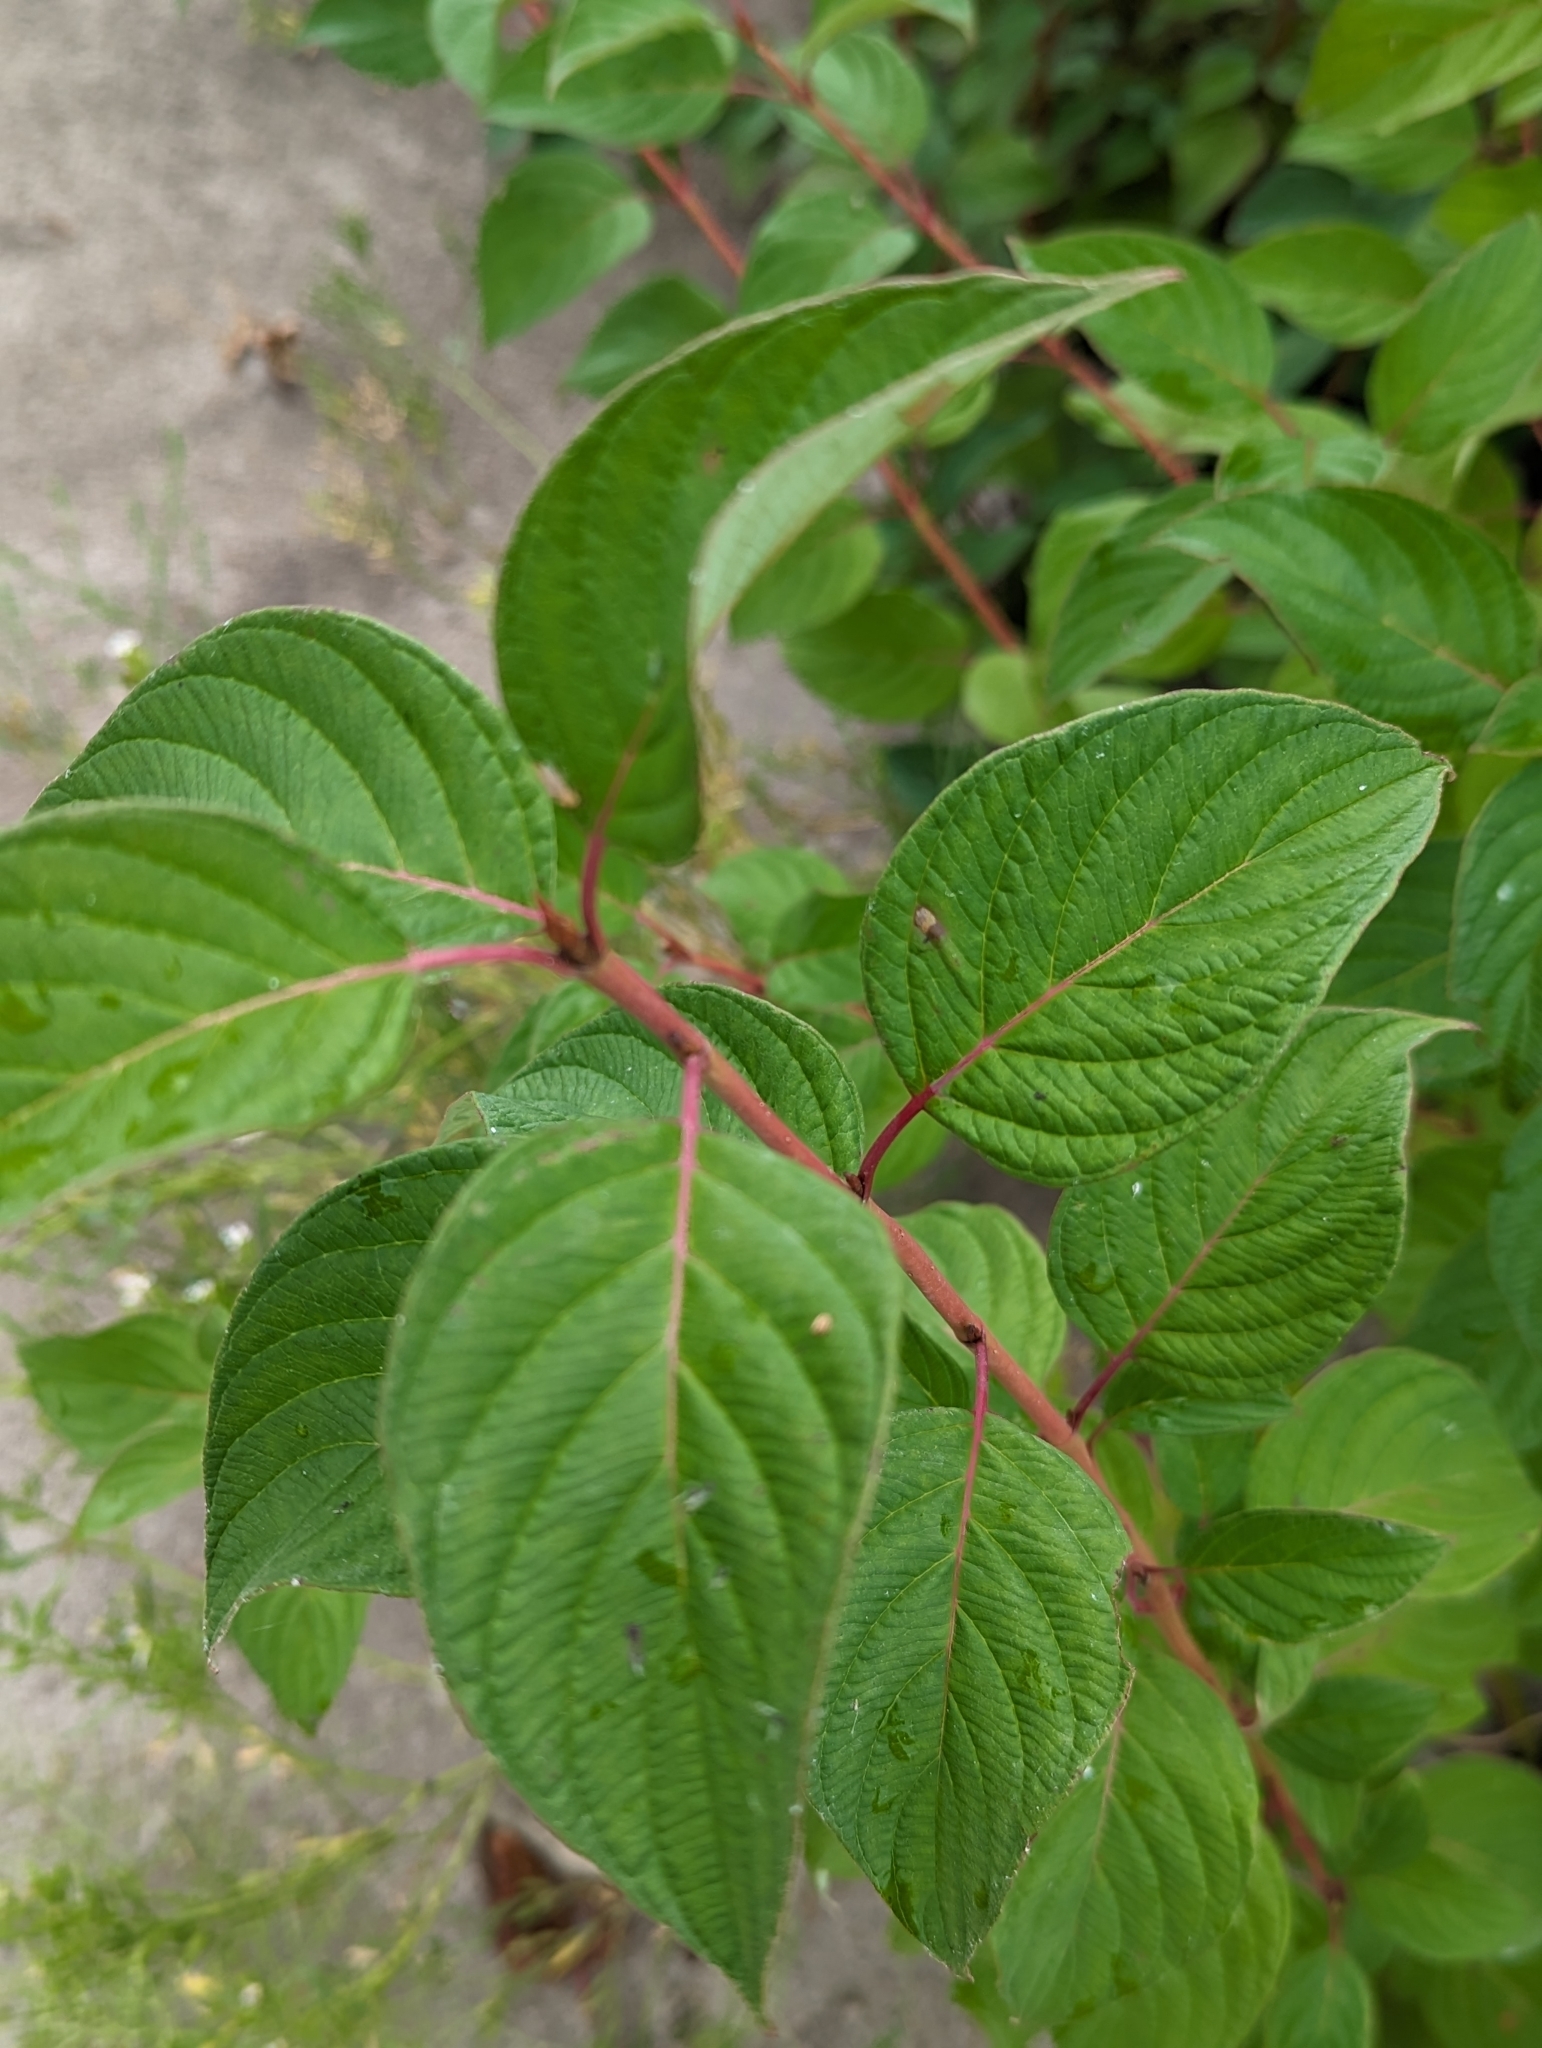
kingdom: Plantae
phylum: Tracheophyta
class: Magnoliopsida
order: Cornales
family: Cornaceae
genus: Cornus
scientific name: Cornus sericea
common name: Red-osier dogwood
